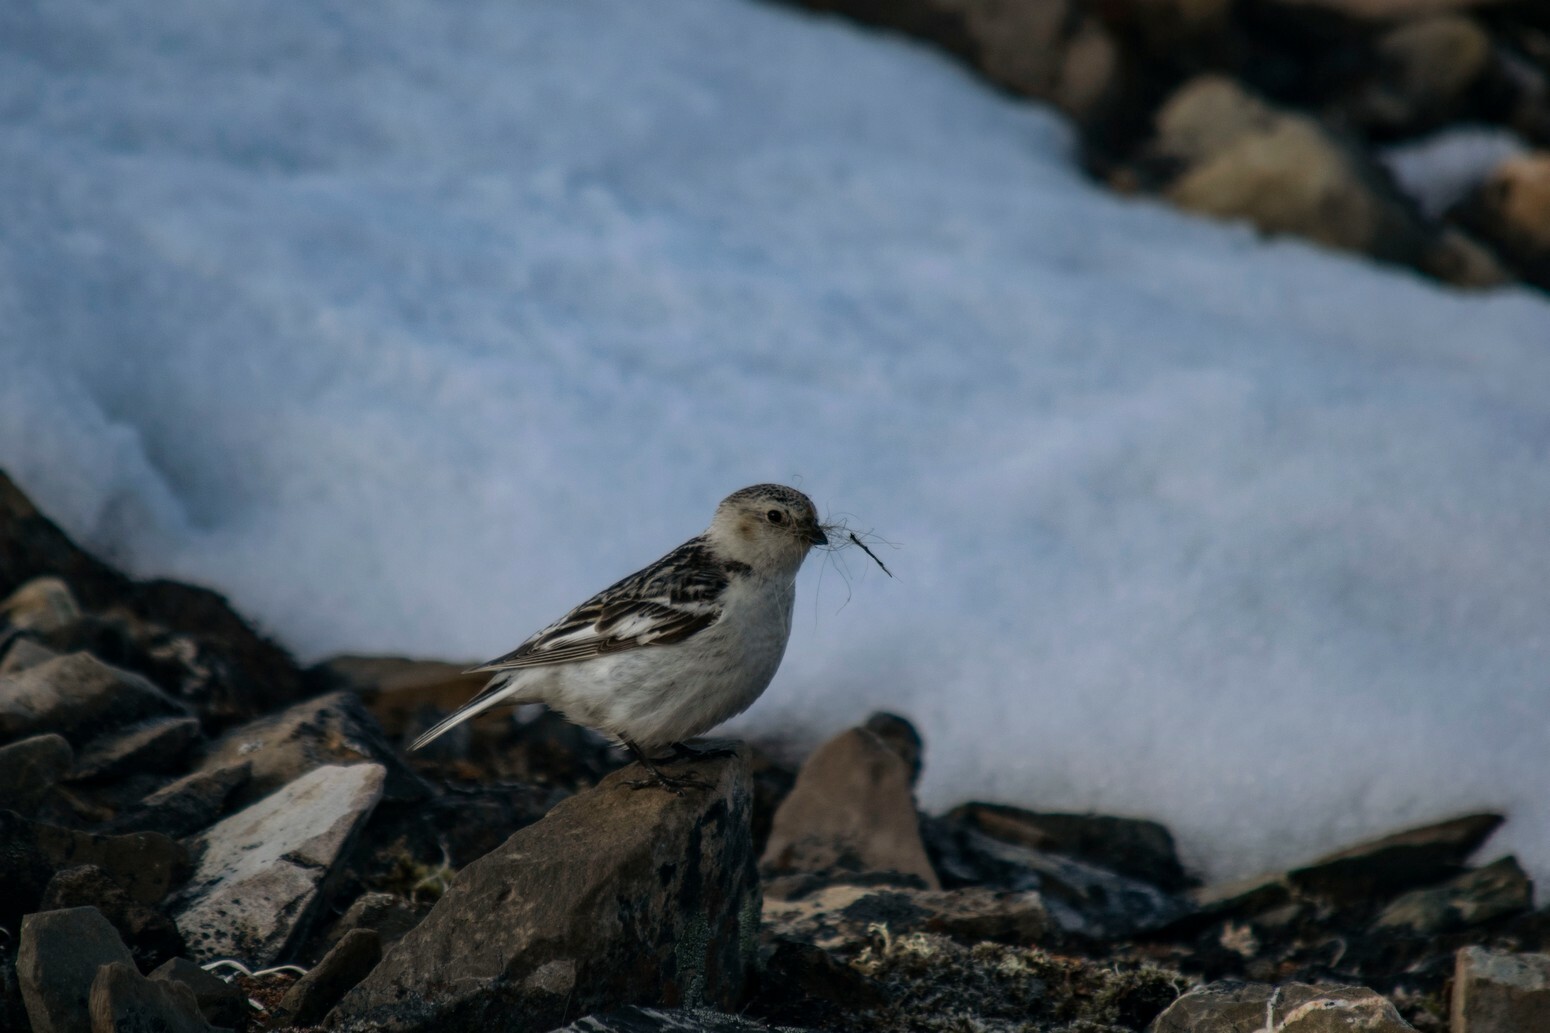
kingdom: Animalia
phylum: Chordata
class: Aves
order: Passeriformes
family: Calcariidae
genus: Plectrophenax
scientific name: Plectrophenax nivalis
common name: Snow bunting
